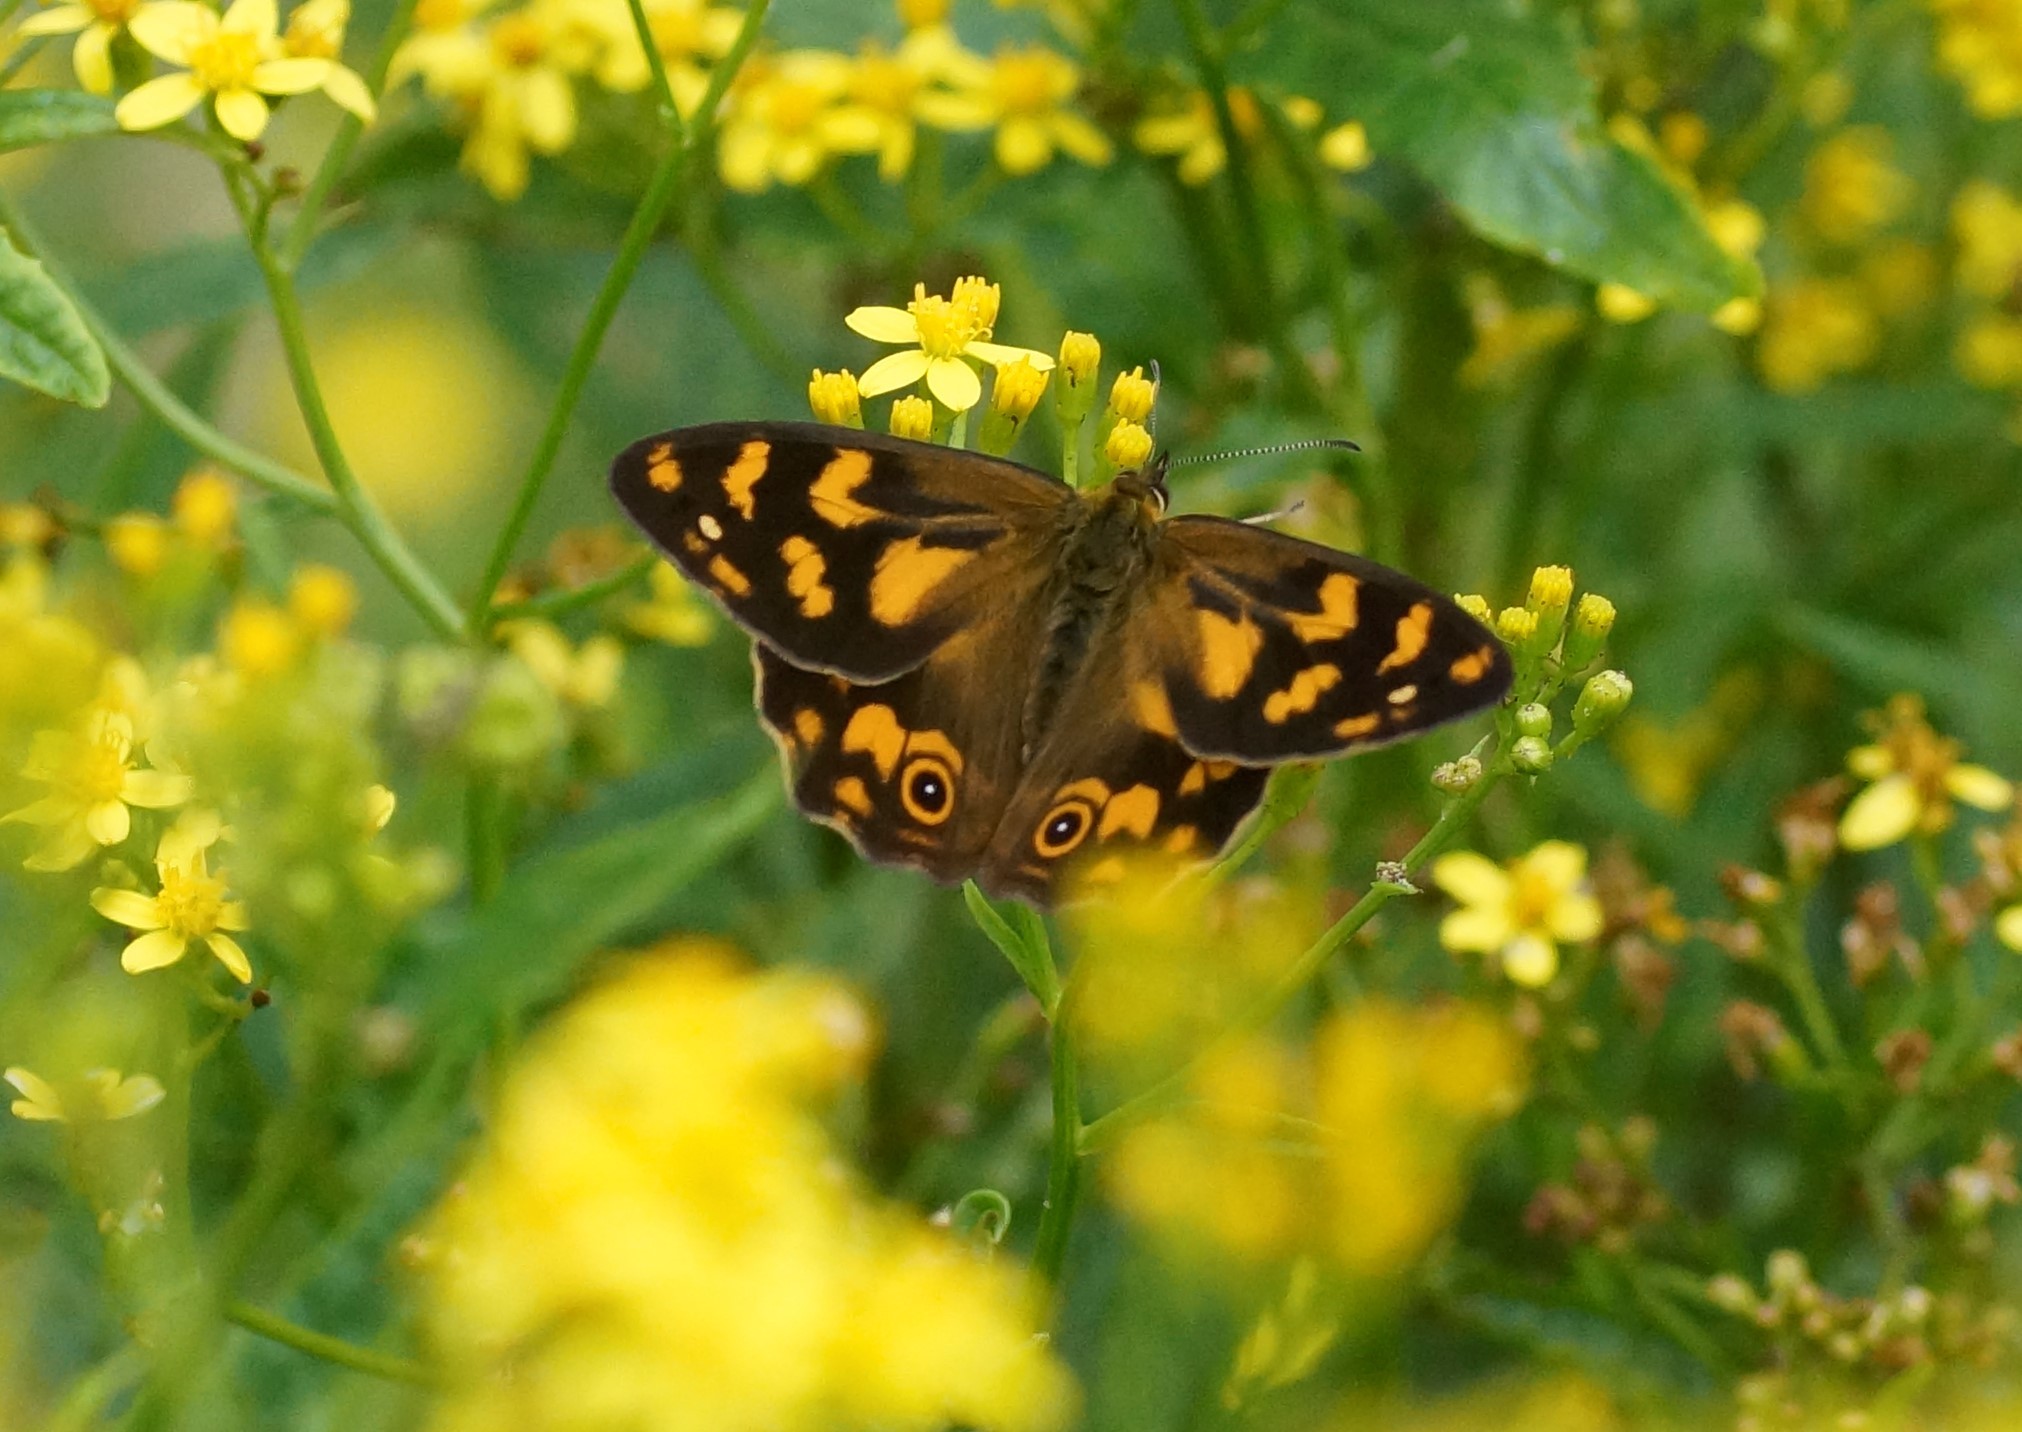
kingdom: Animalia
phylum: Arthropoda
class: Insecta
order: Lepidoptera
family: Nymphalidae
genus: Heteronympha
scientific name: Heteronympha banksii
